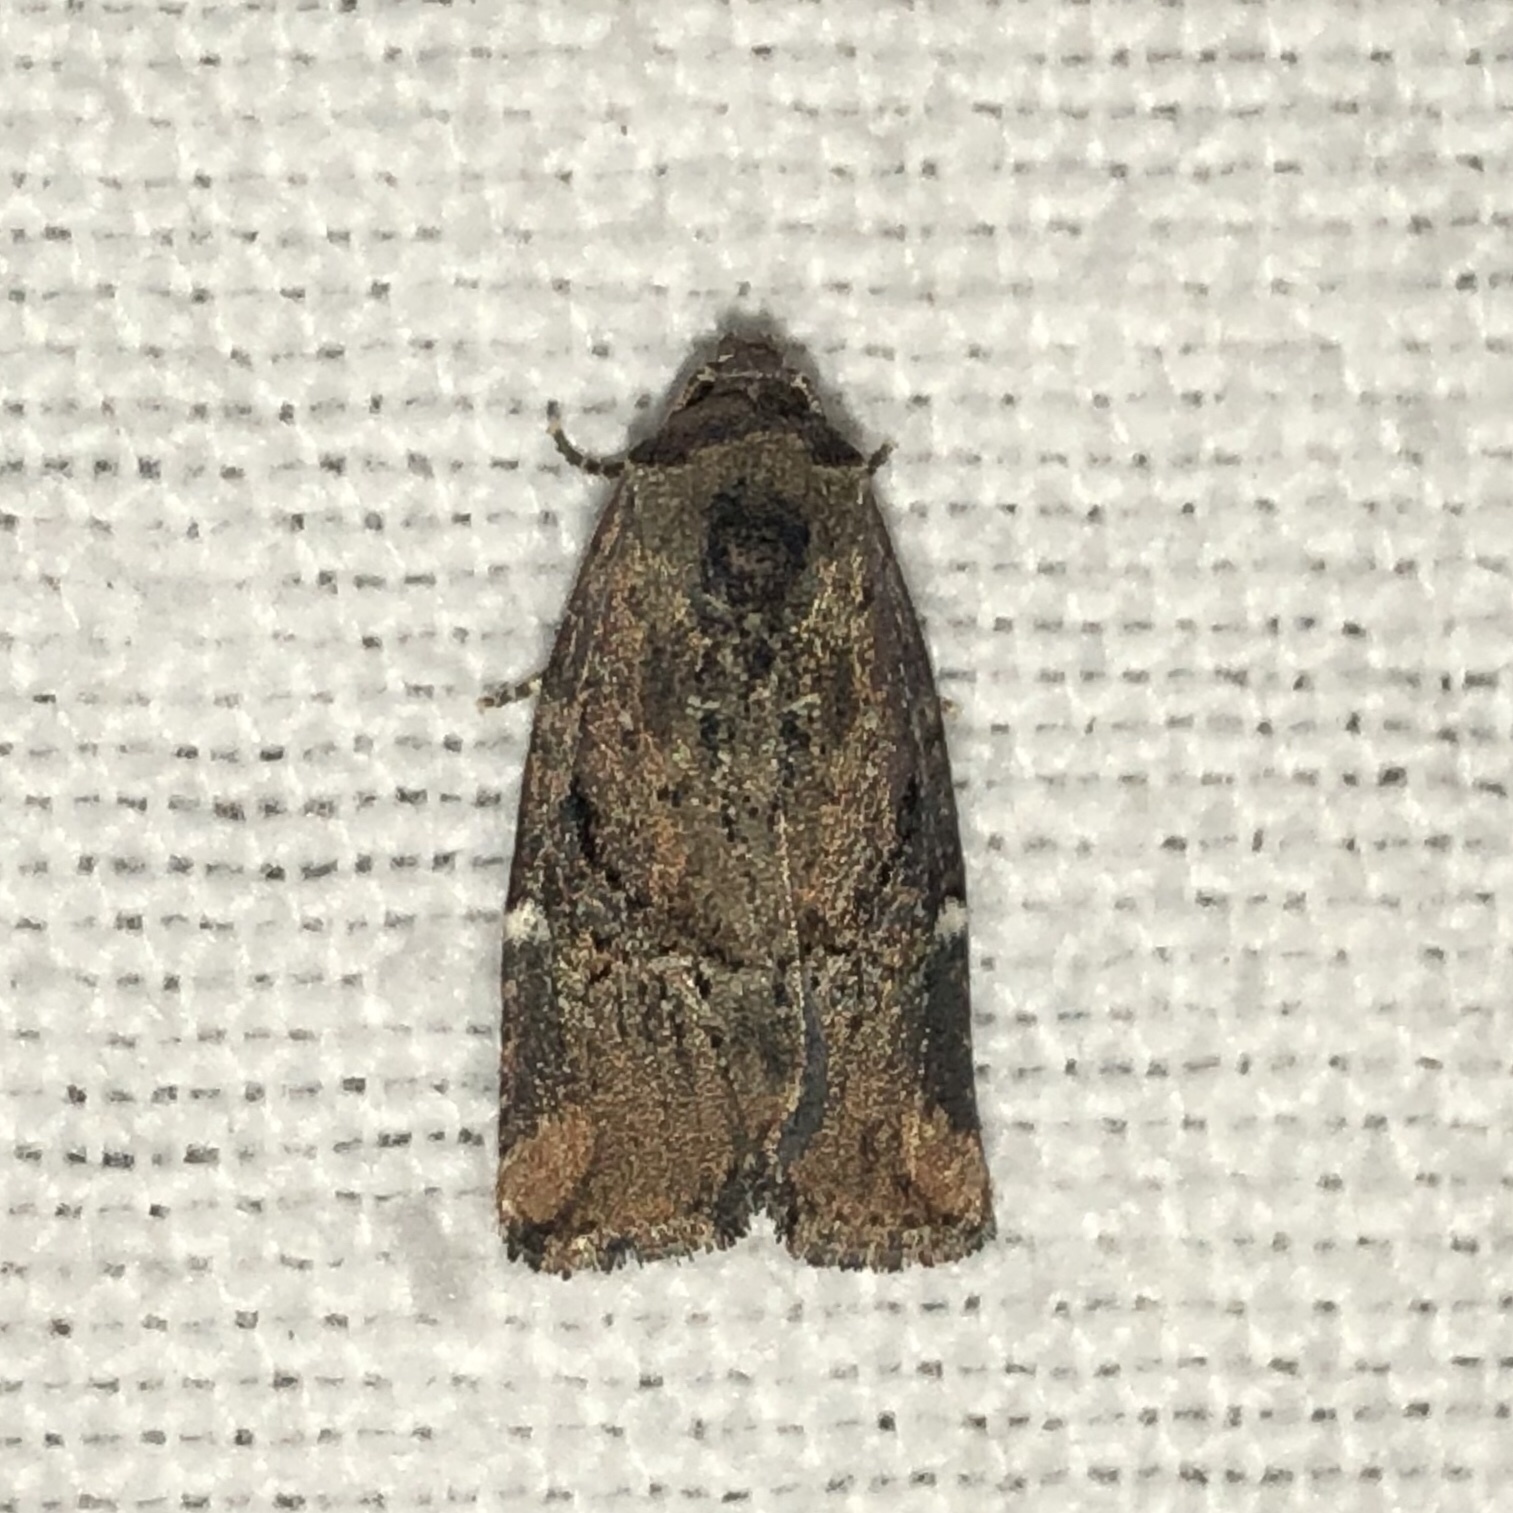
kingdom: Animalia
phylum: Arthropoda
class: Insecta
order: Lepidoptera
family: Noctuidae
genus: Elaphria
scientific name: Elaphria versicolor
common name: Fir harlequin
